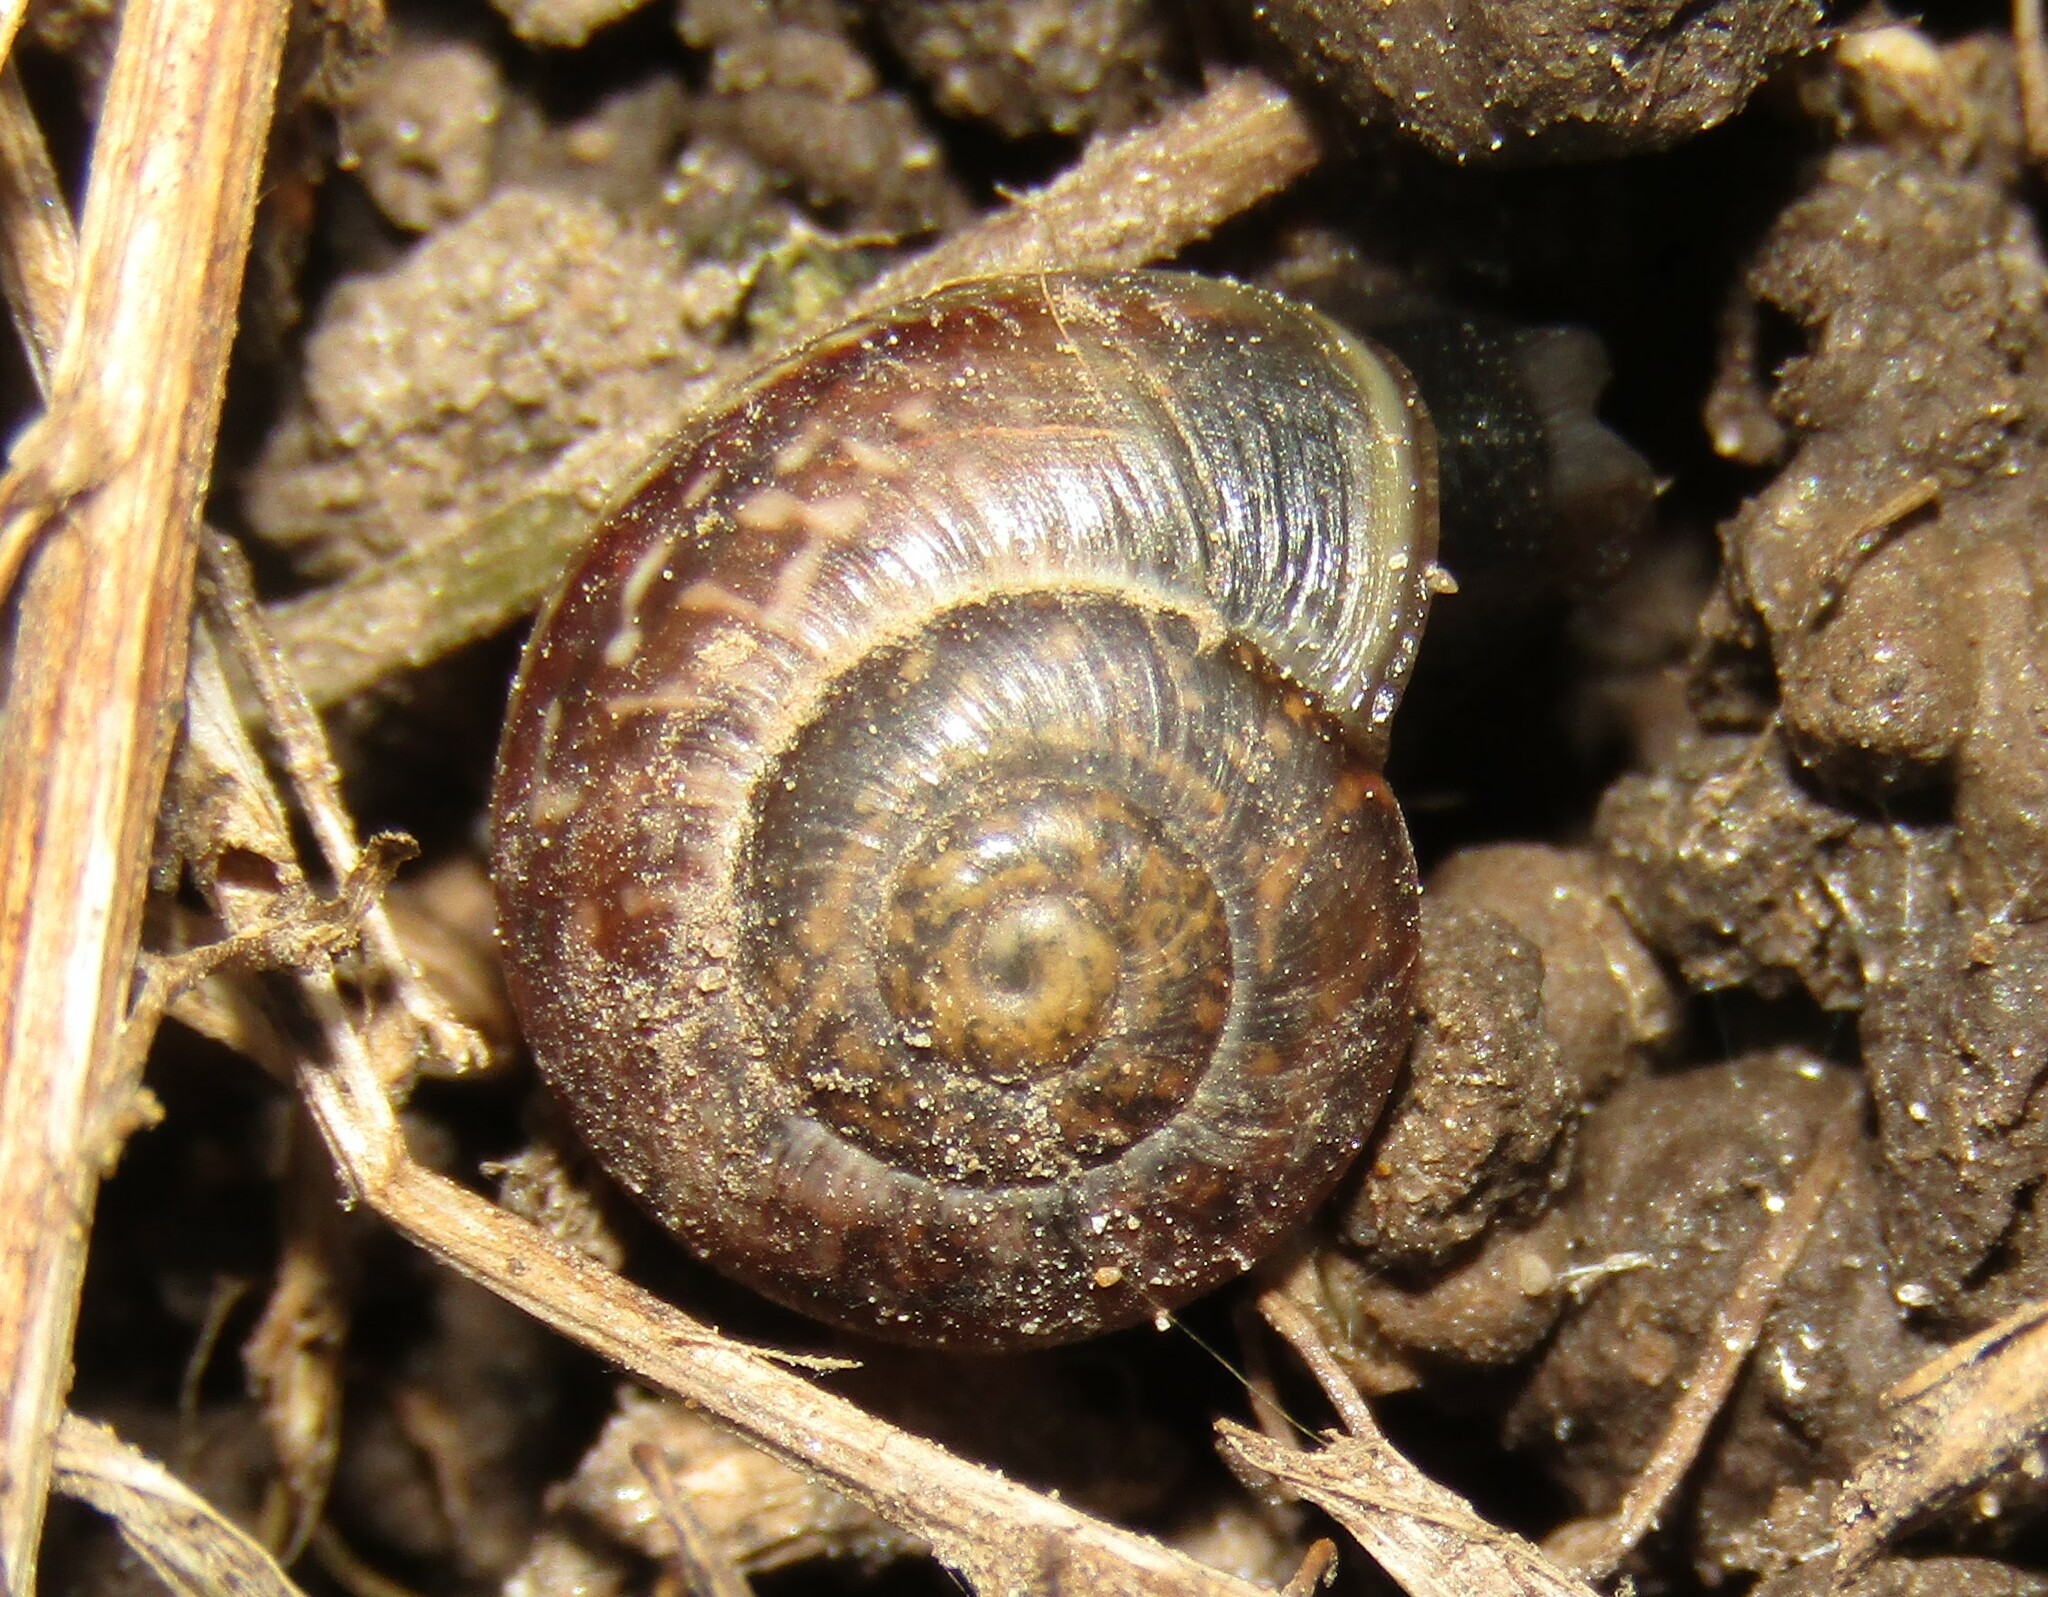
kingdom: Animalia
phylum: Mollusca
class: Gastropoda
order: Stylommatophora
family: Helicidae
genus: Arianta
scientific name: Arianta arbustorum
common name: Copse snail
